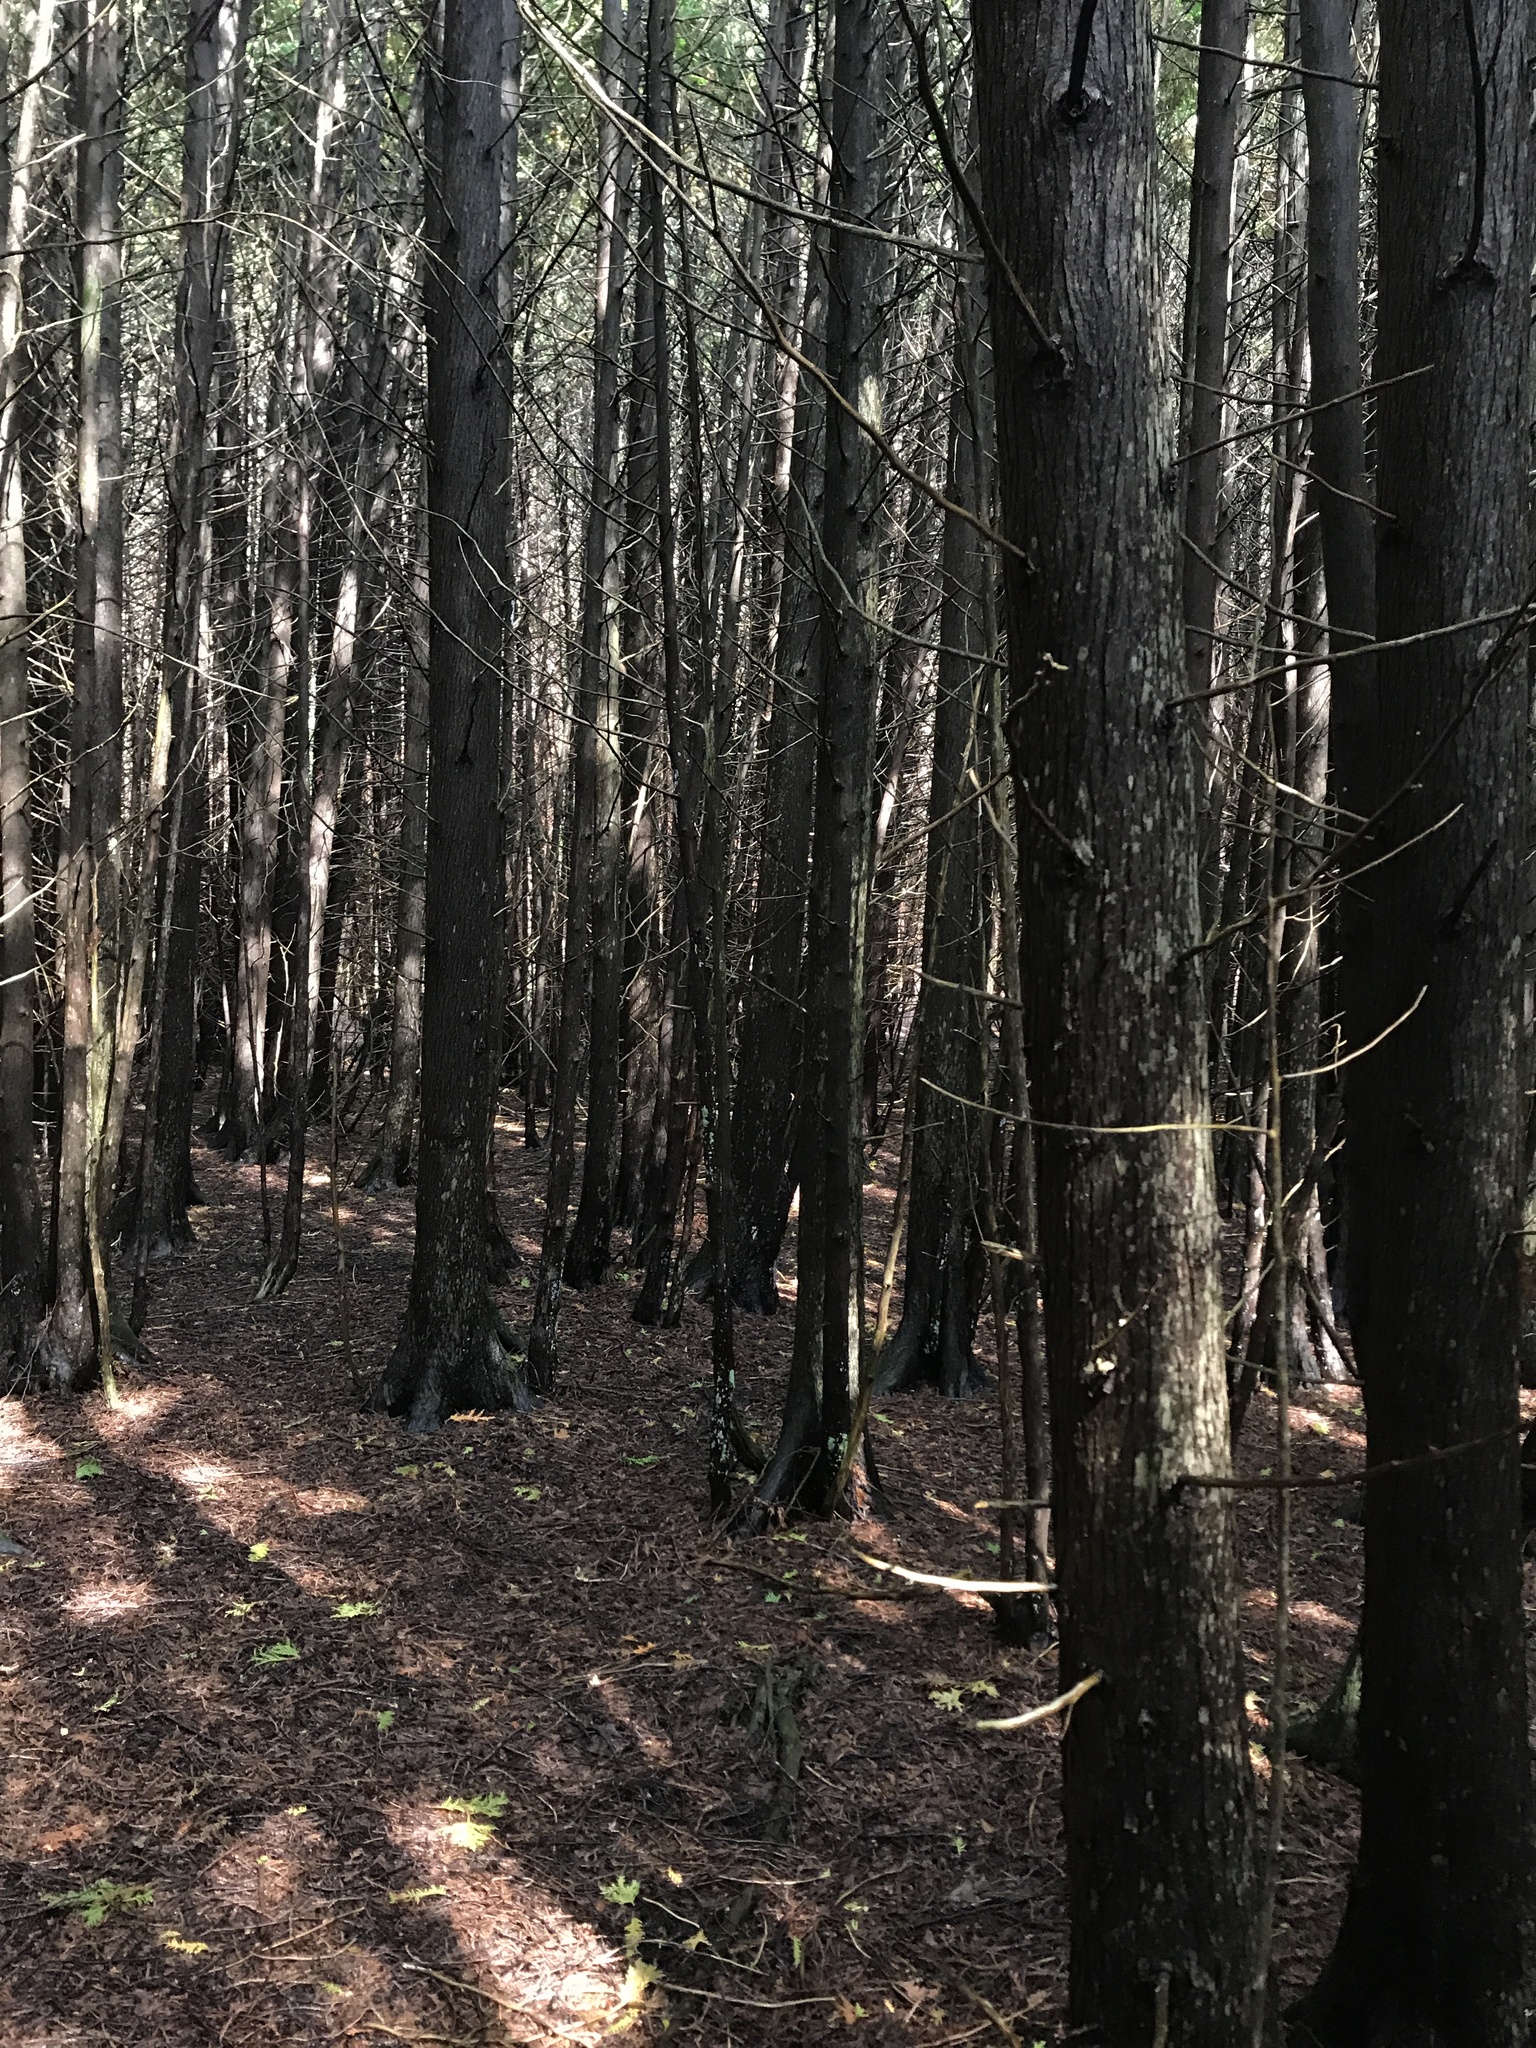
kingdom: Plantae
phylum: Tracheophyta
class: Pinopsida
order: Pinales
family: Cupressaceae
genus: Thuja
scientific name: Thuja occidentalis
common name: Northern white-cedar
